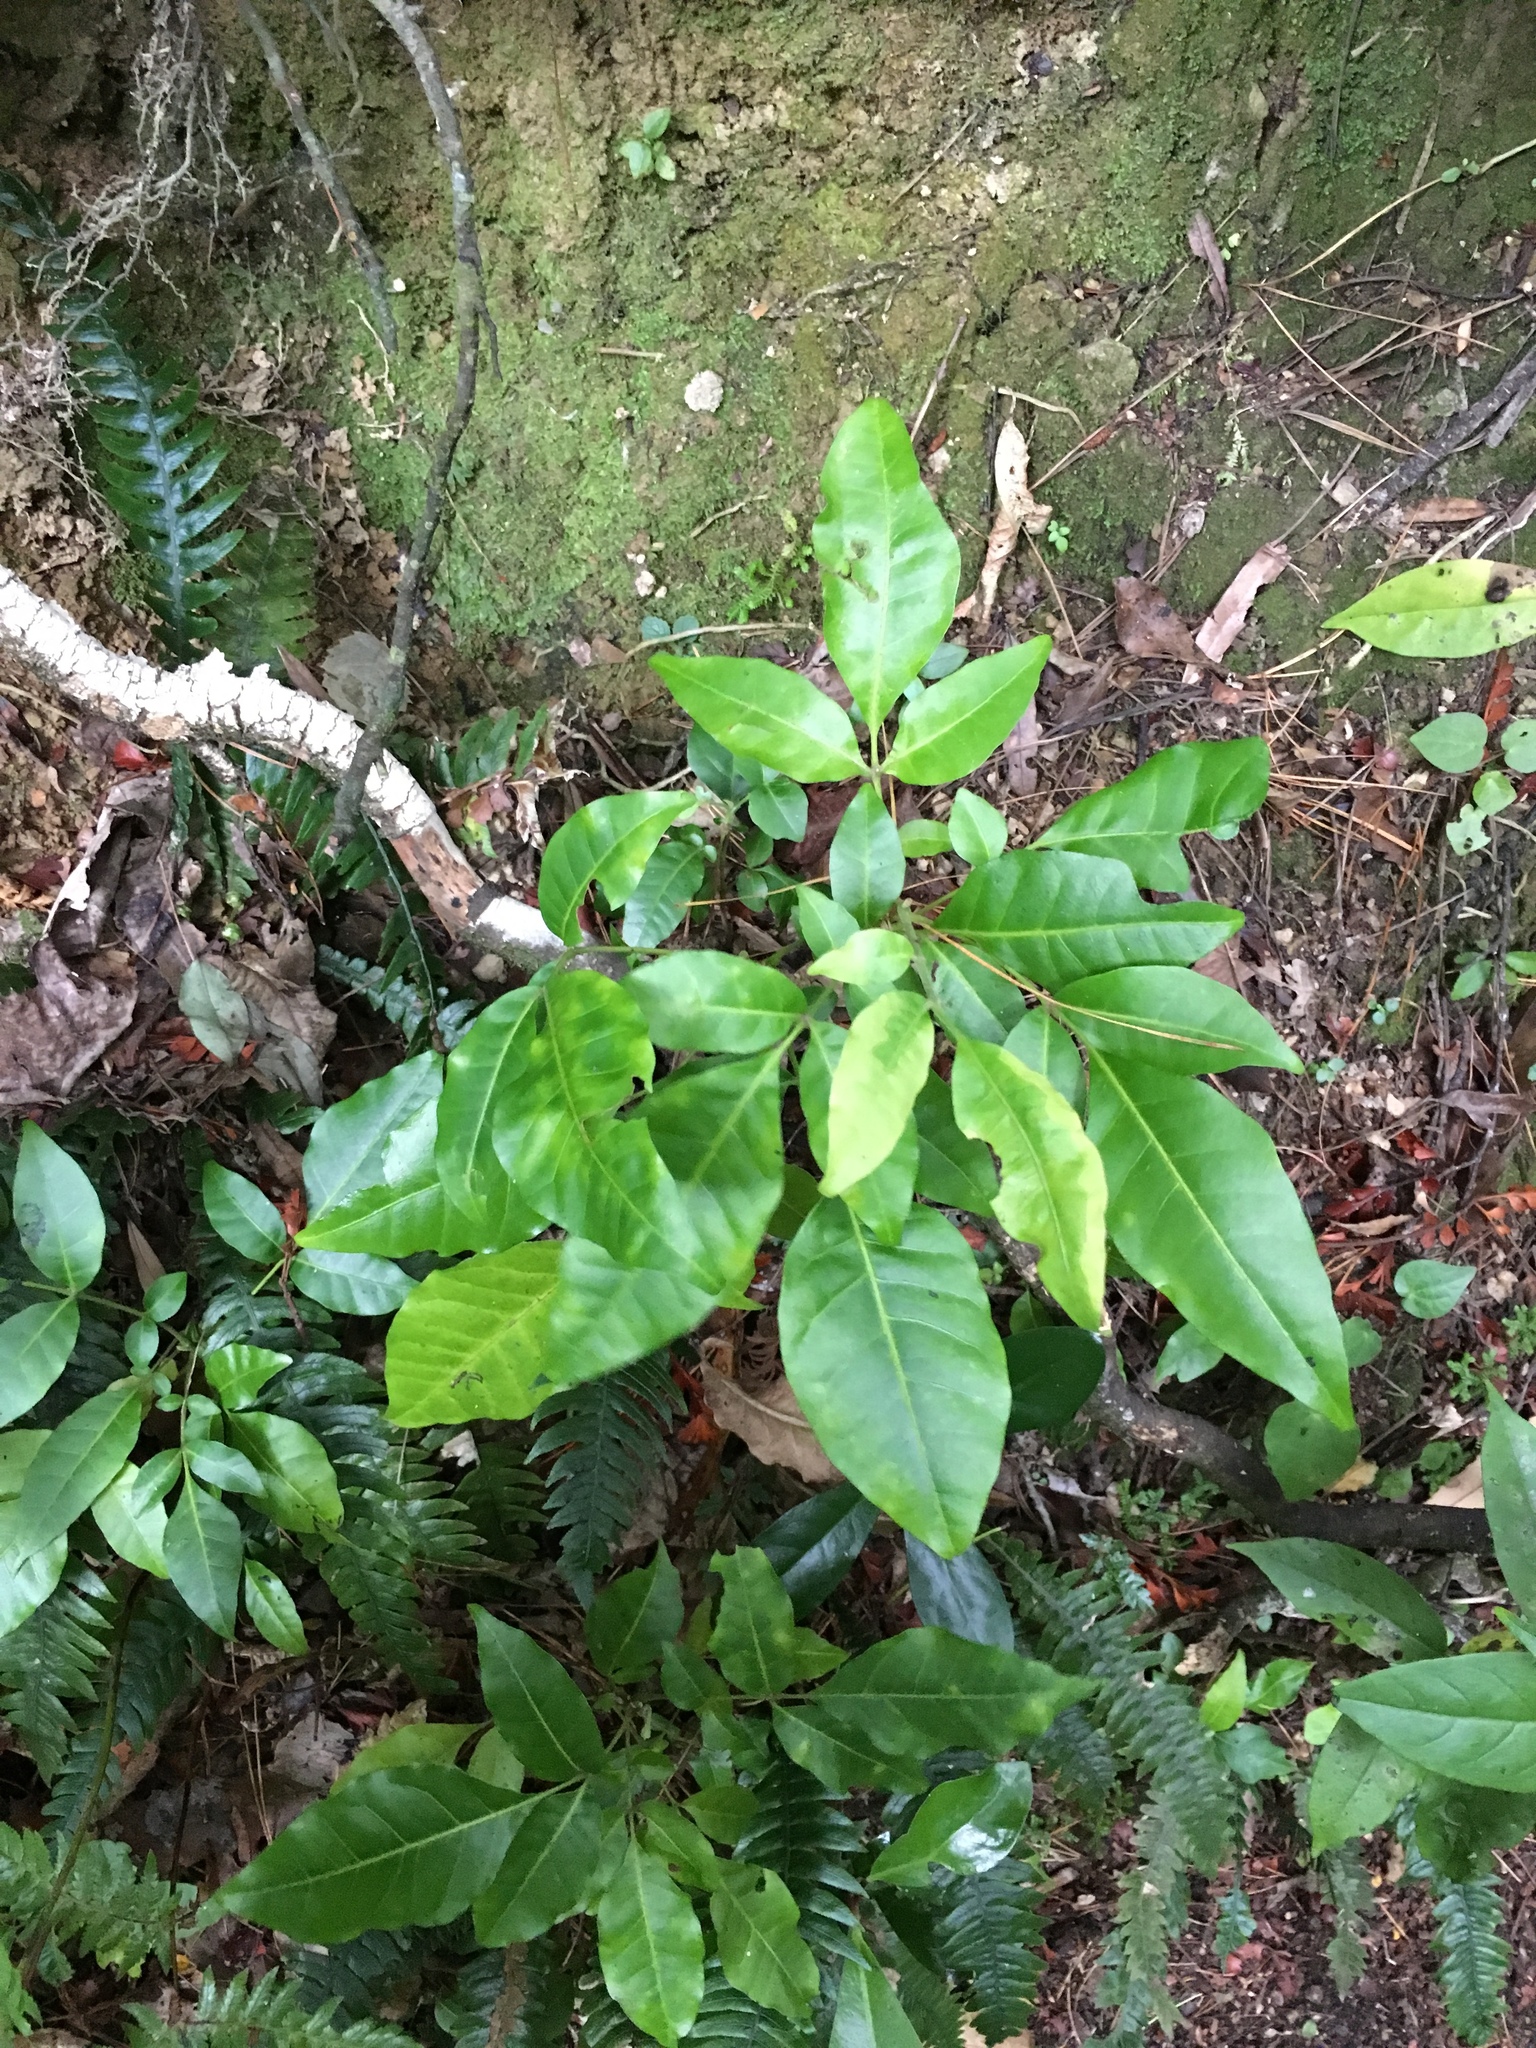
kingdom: Plantae
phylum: Tracheophyta
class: Magnoliopsida
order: Sapindales
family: Meliaceae
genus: Didymocheton
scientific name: Didymocheton spectabilis
